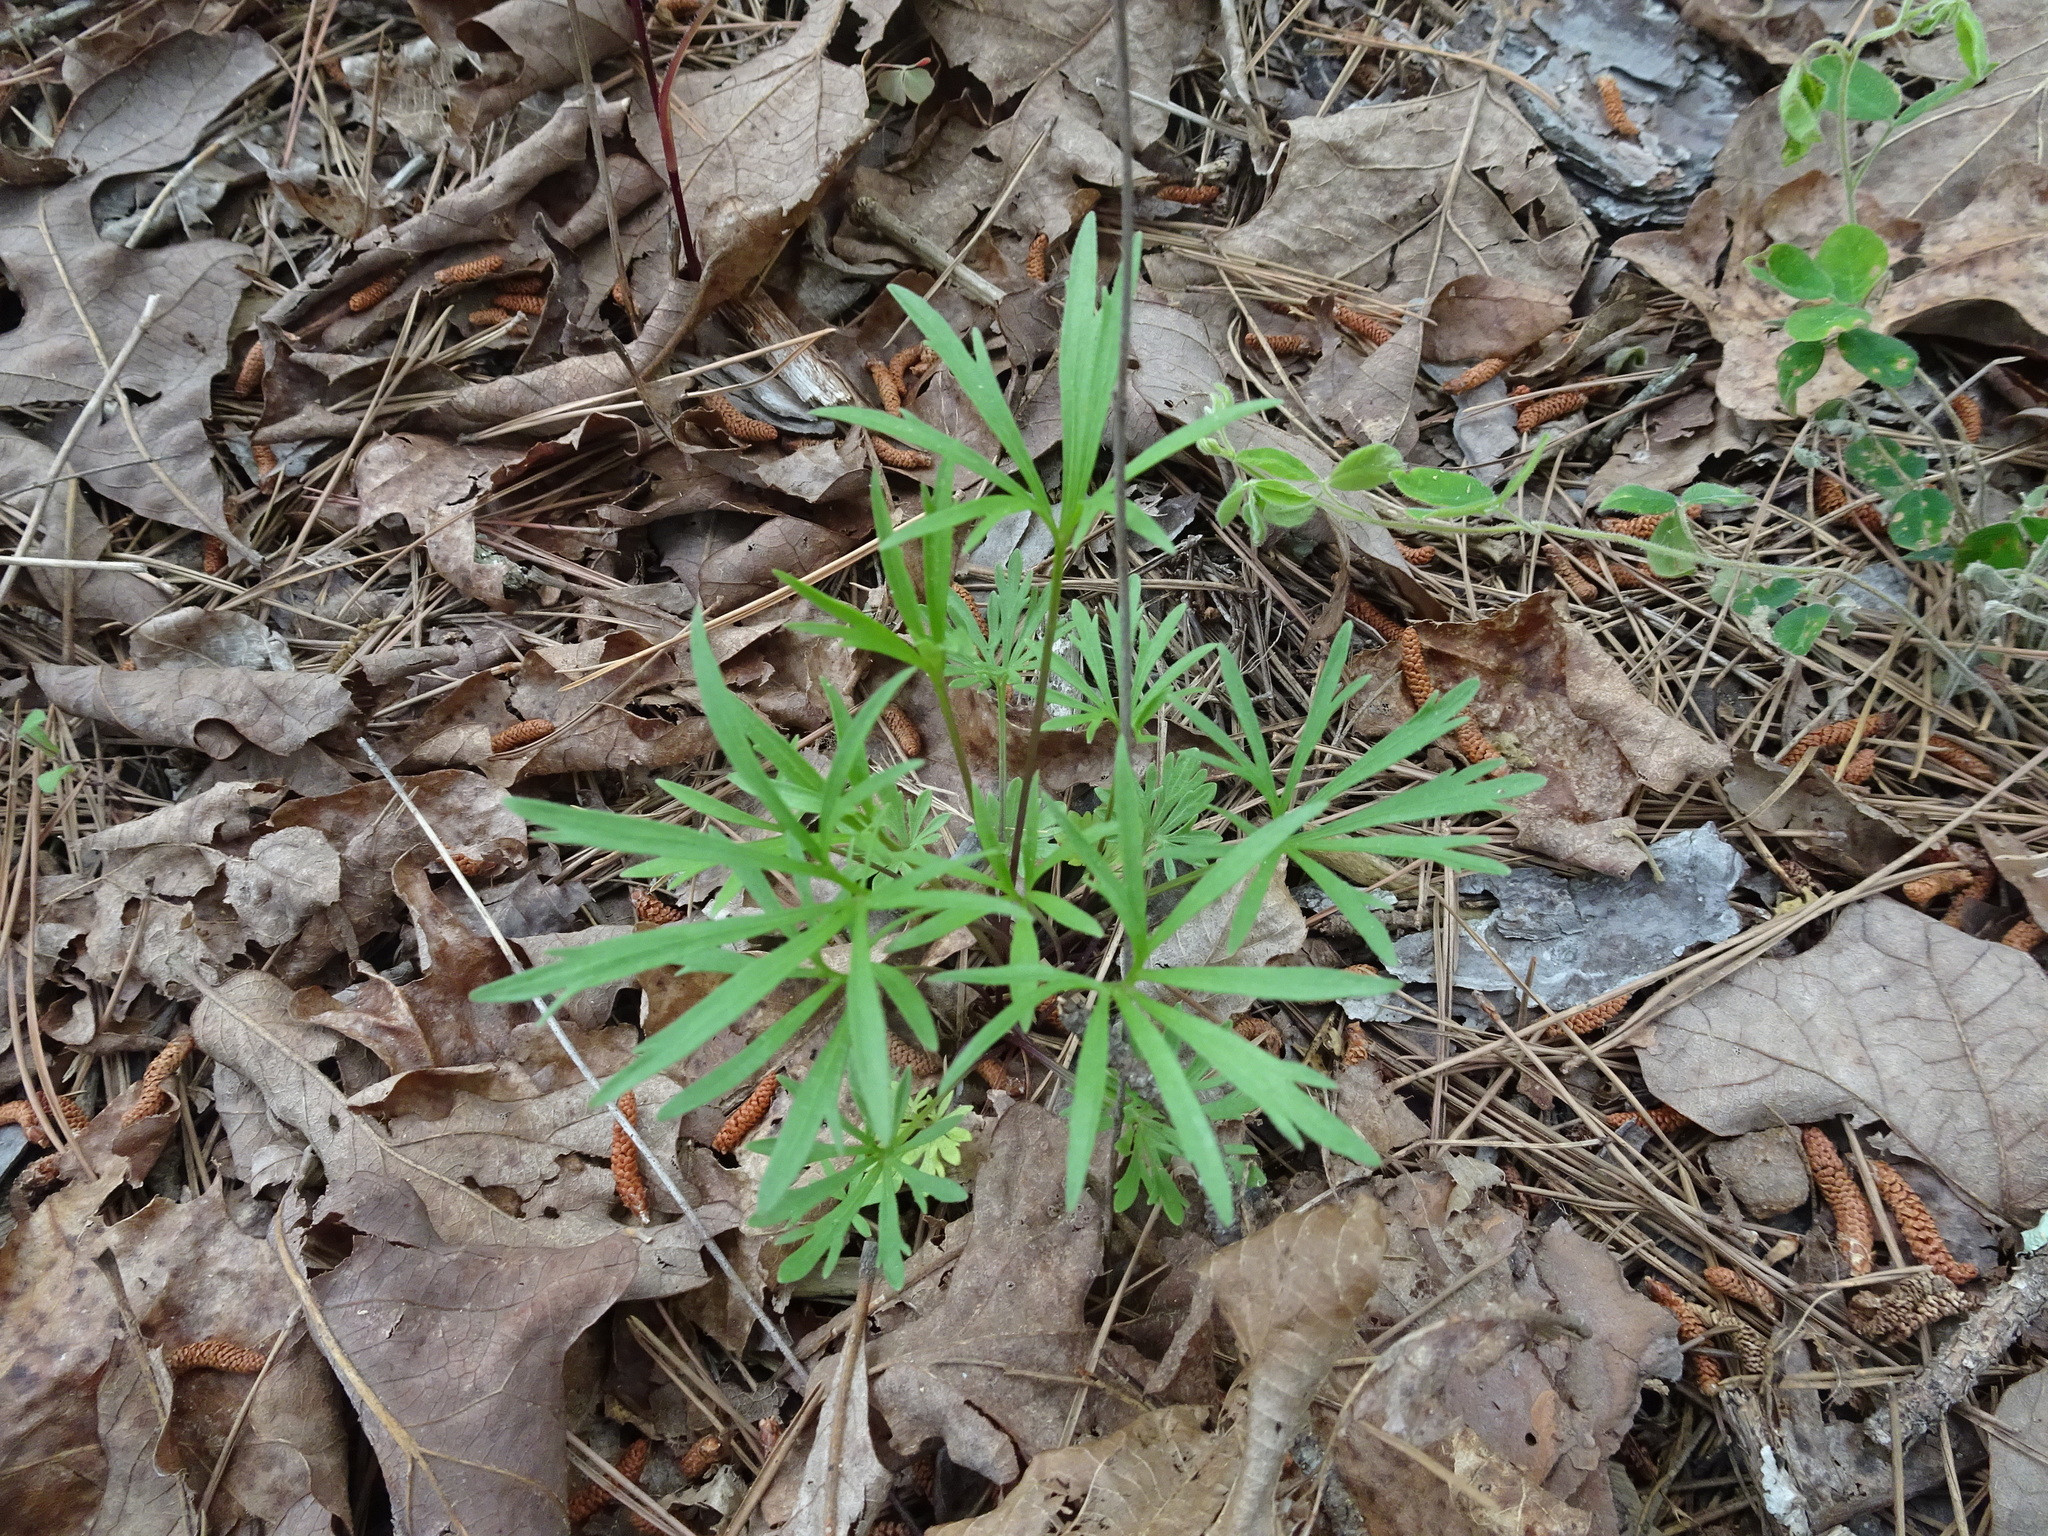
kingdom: Plantae
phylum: Tracheophyta
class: Magnoliopsida
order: Malpighiales
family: Violaceae
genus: Viola
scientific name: Viola pedata
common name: Pansy violet
